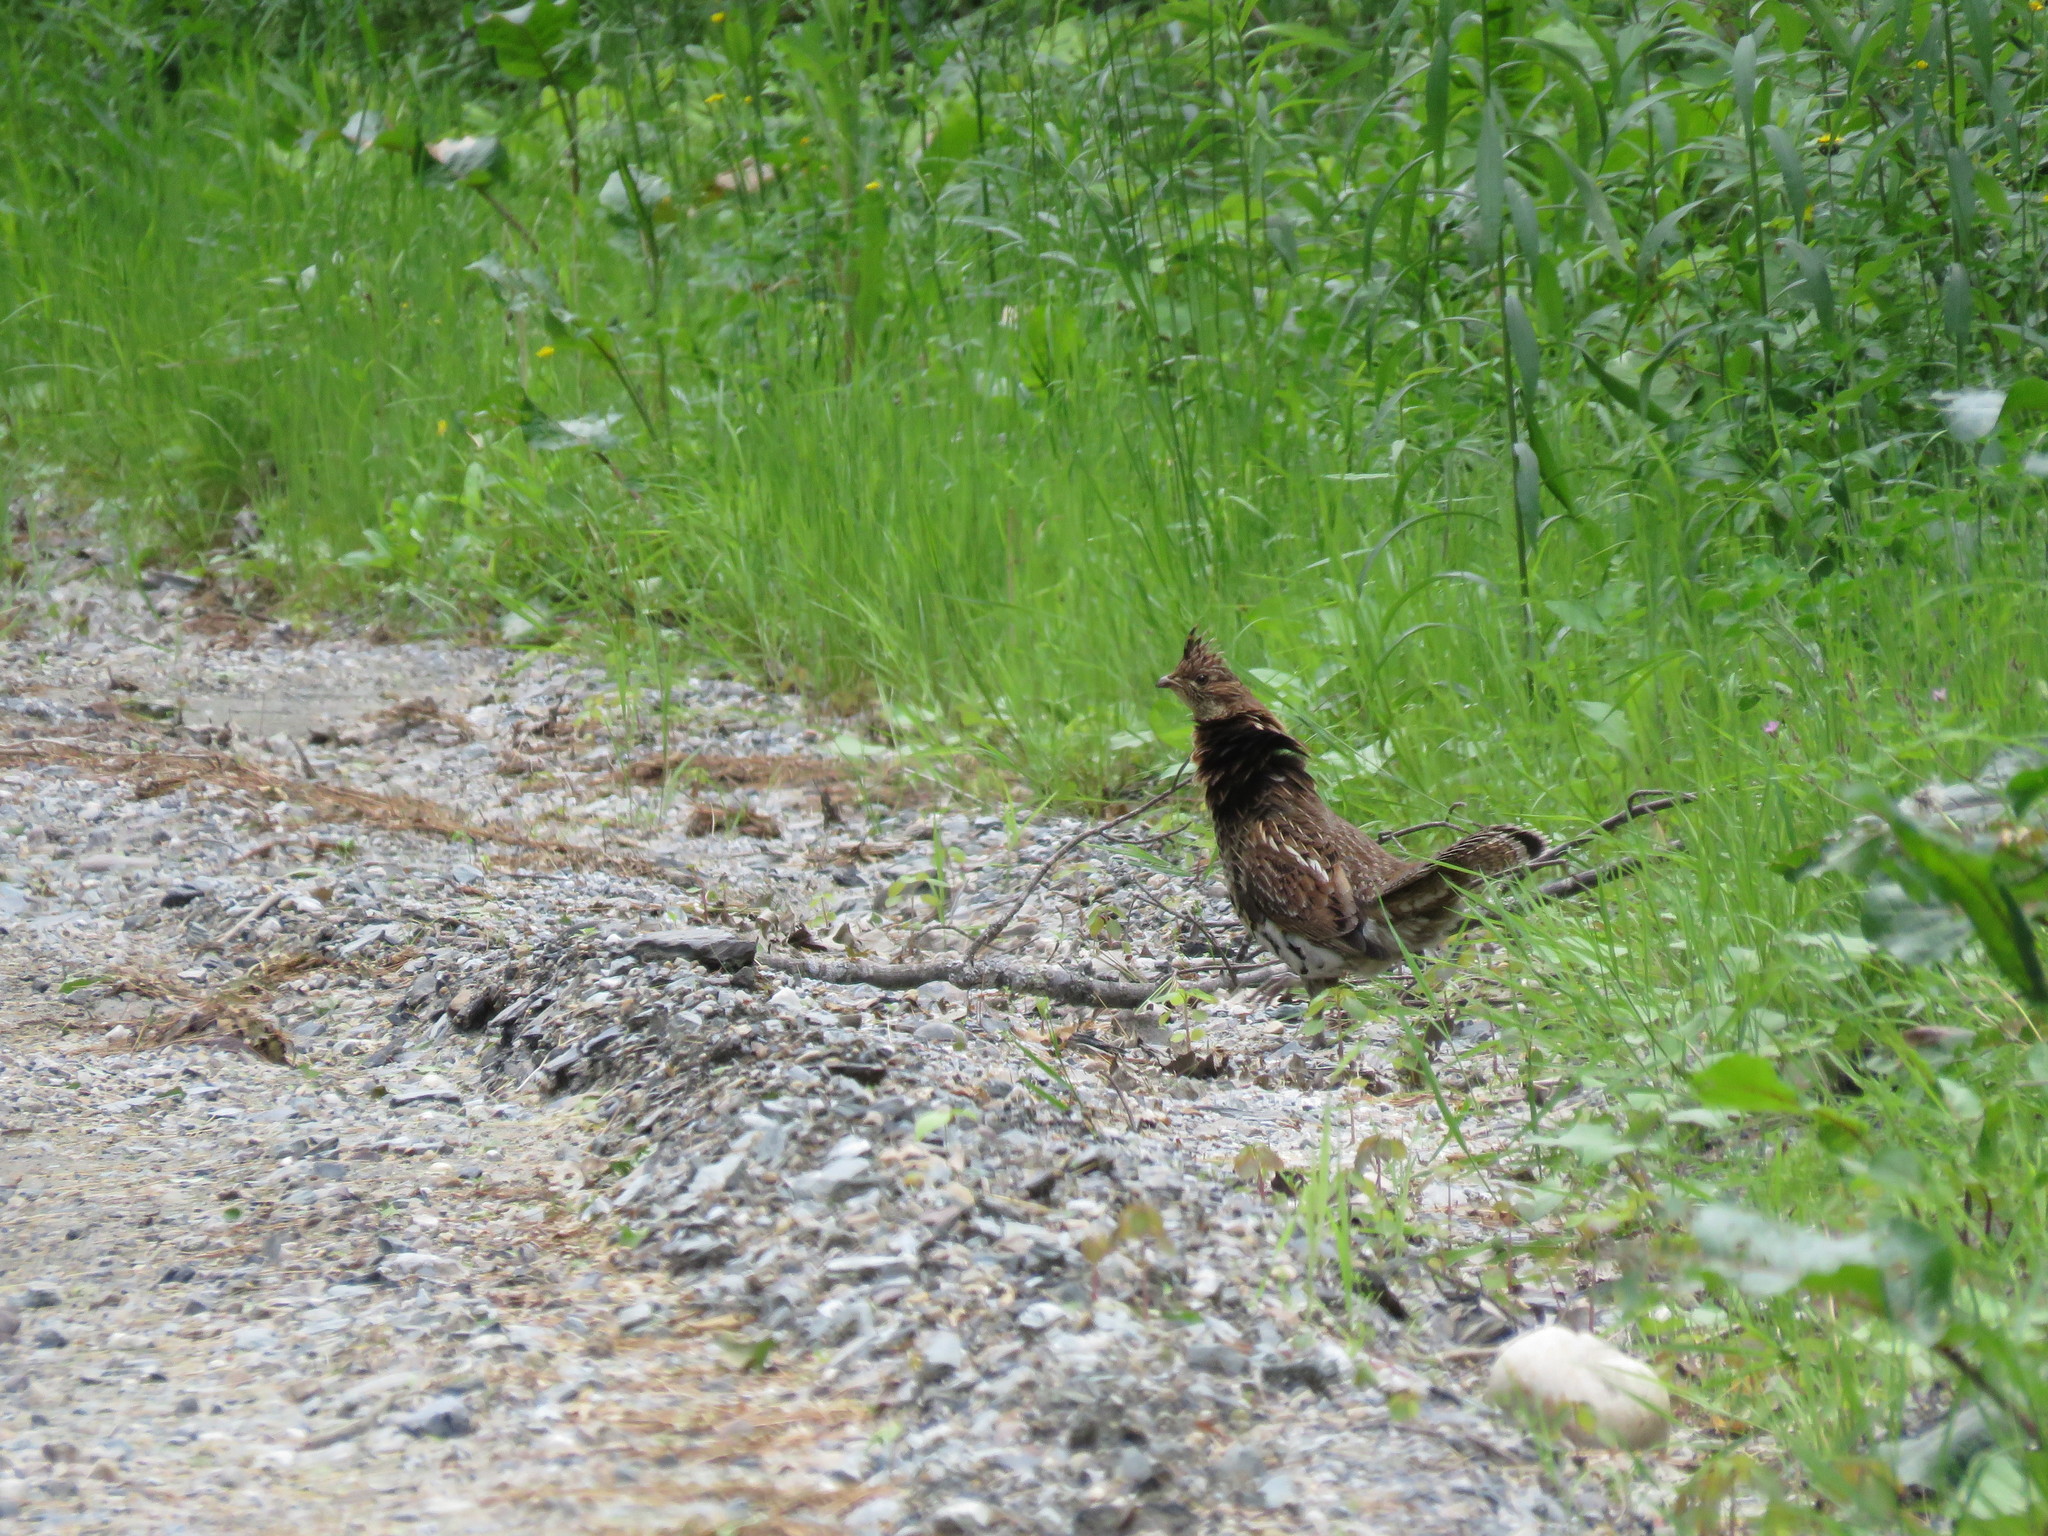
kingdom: Animalia
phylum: Chordata
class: Aves
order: Galliformes
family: Phasianidae
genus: Bonasa
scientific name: Bonasa umbellus
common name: Ruffed grouse
